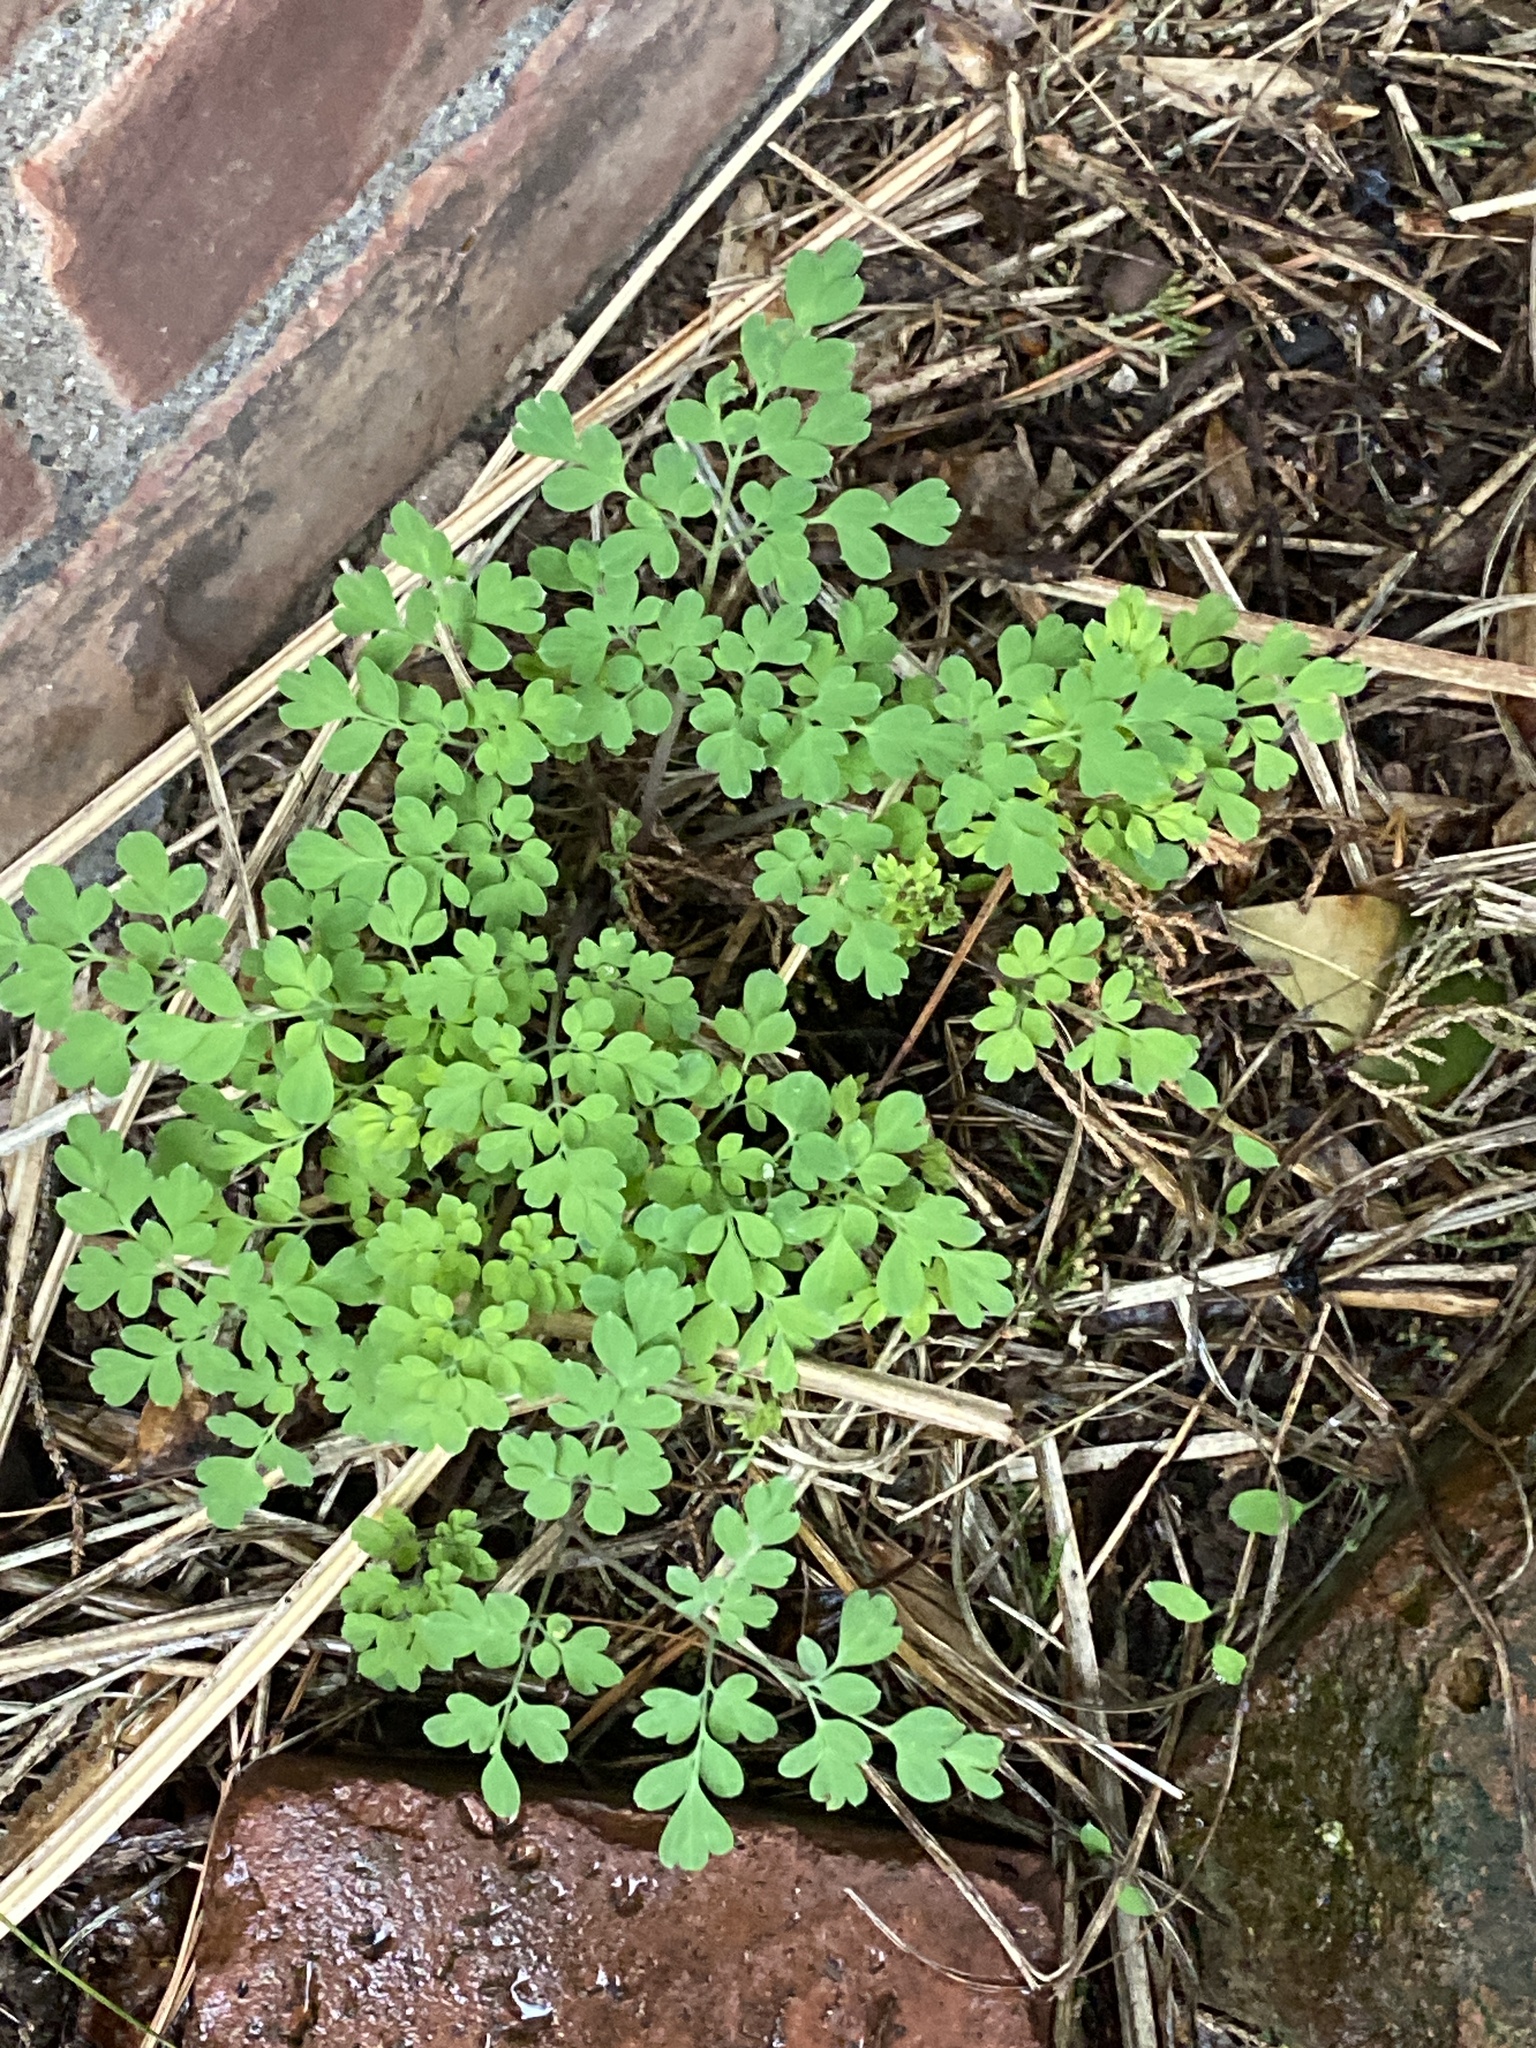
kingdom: Plantae
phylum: Tracheophyta
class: Magnoliopsida
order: Ranunculales
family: Papaveraceae
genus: Pseudofumaria
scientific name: Pseudofumaria lutea
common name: Yellow corydalis
